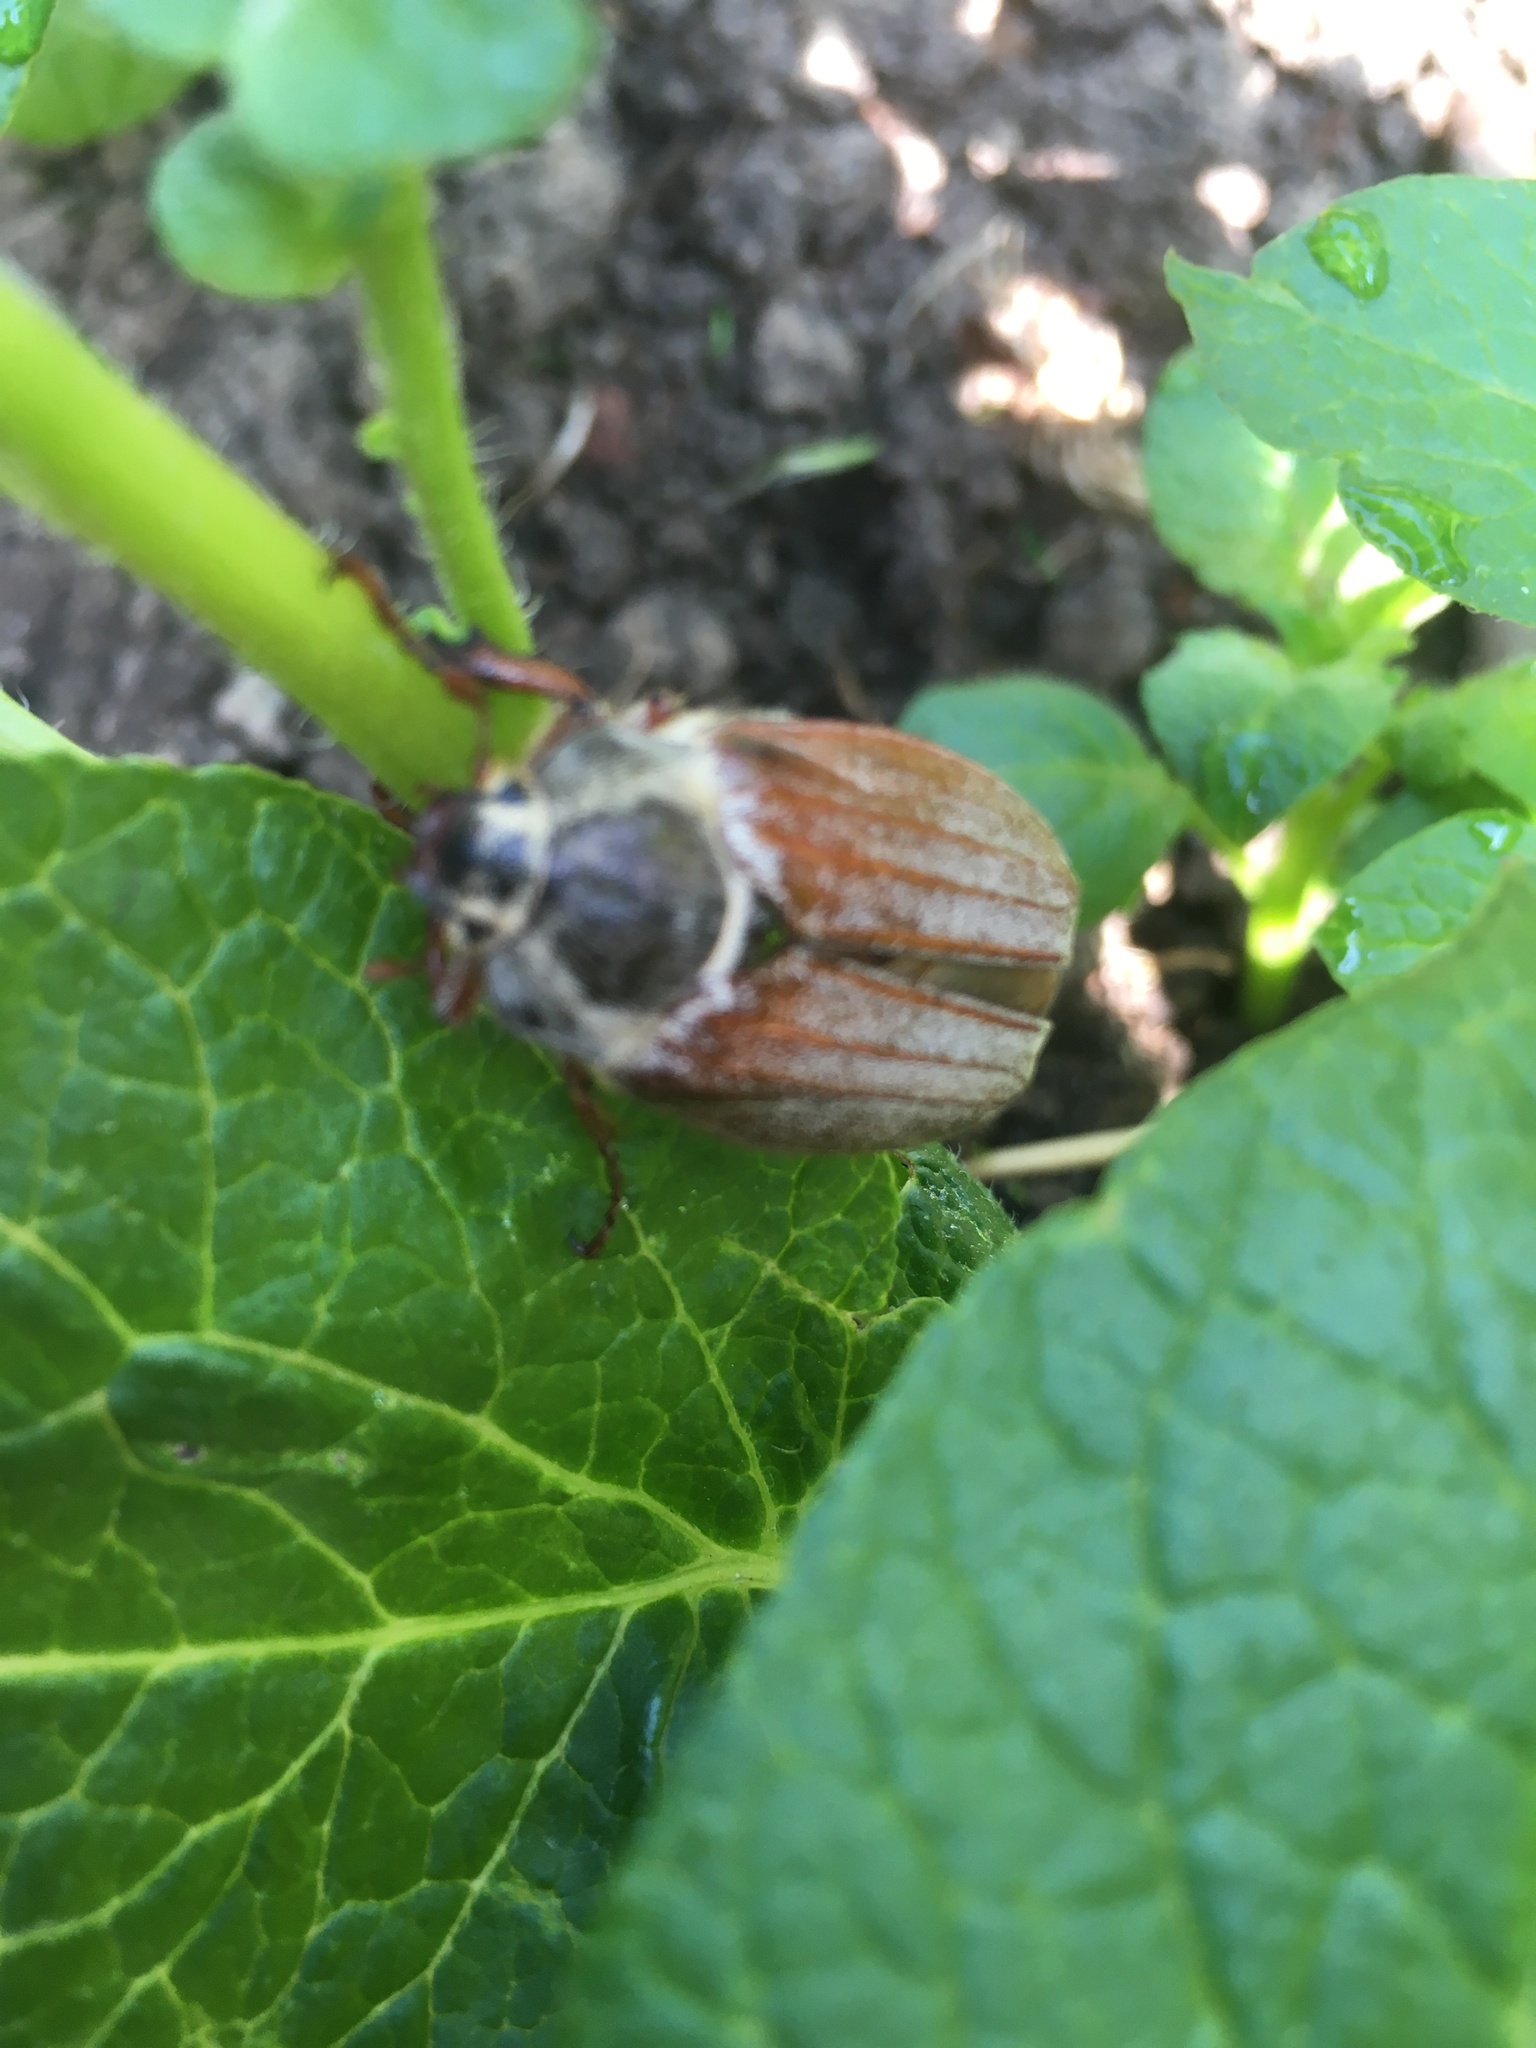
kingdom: Animalia
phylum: Arthropoda
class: Insecta
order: Coleoptera
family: Scarabaeidae
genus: Melolontha
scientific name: Melolontha melolontha
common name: Cockchafer maybeetle
